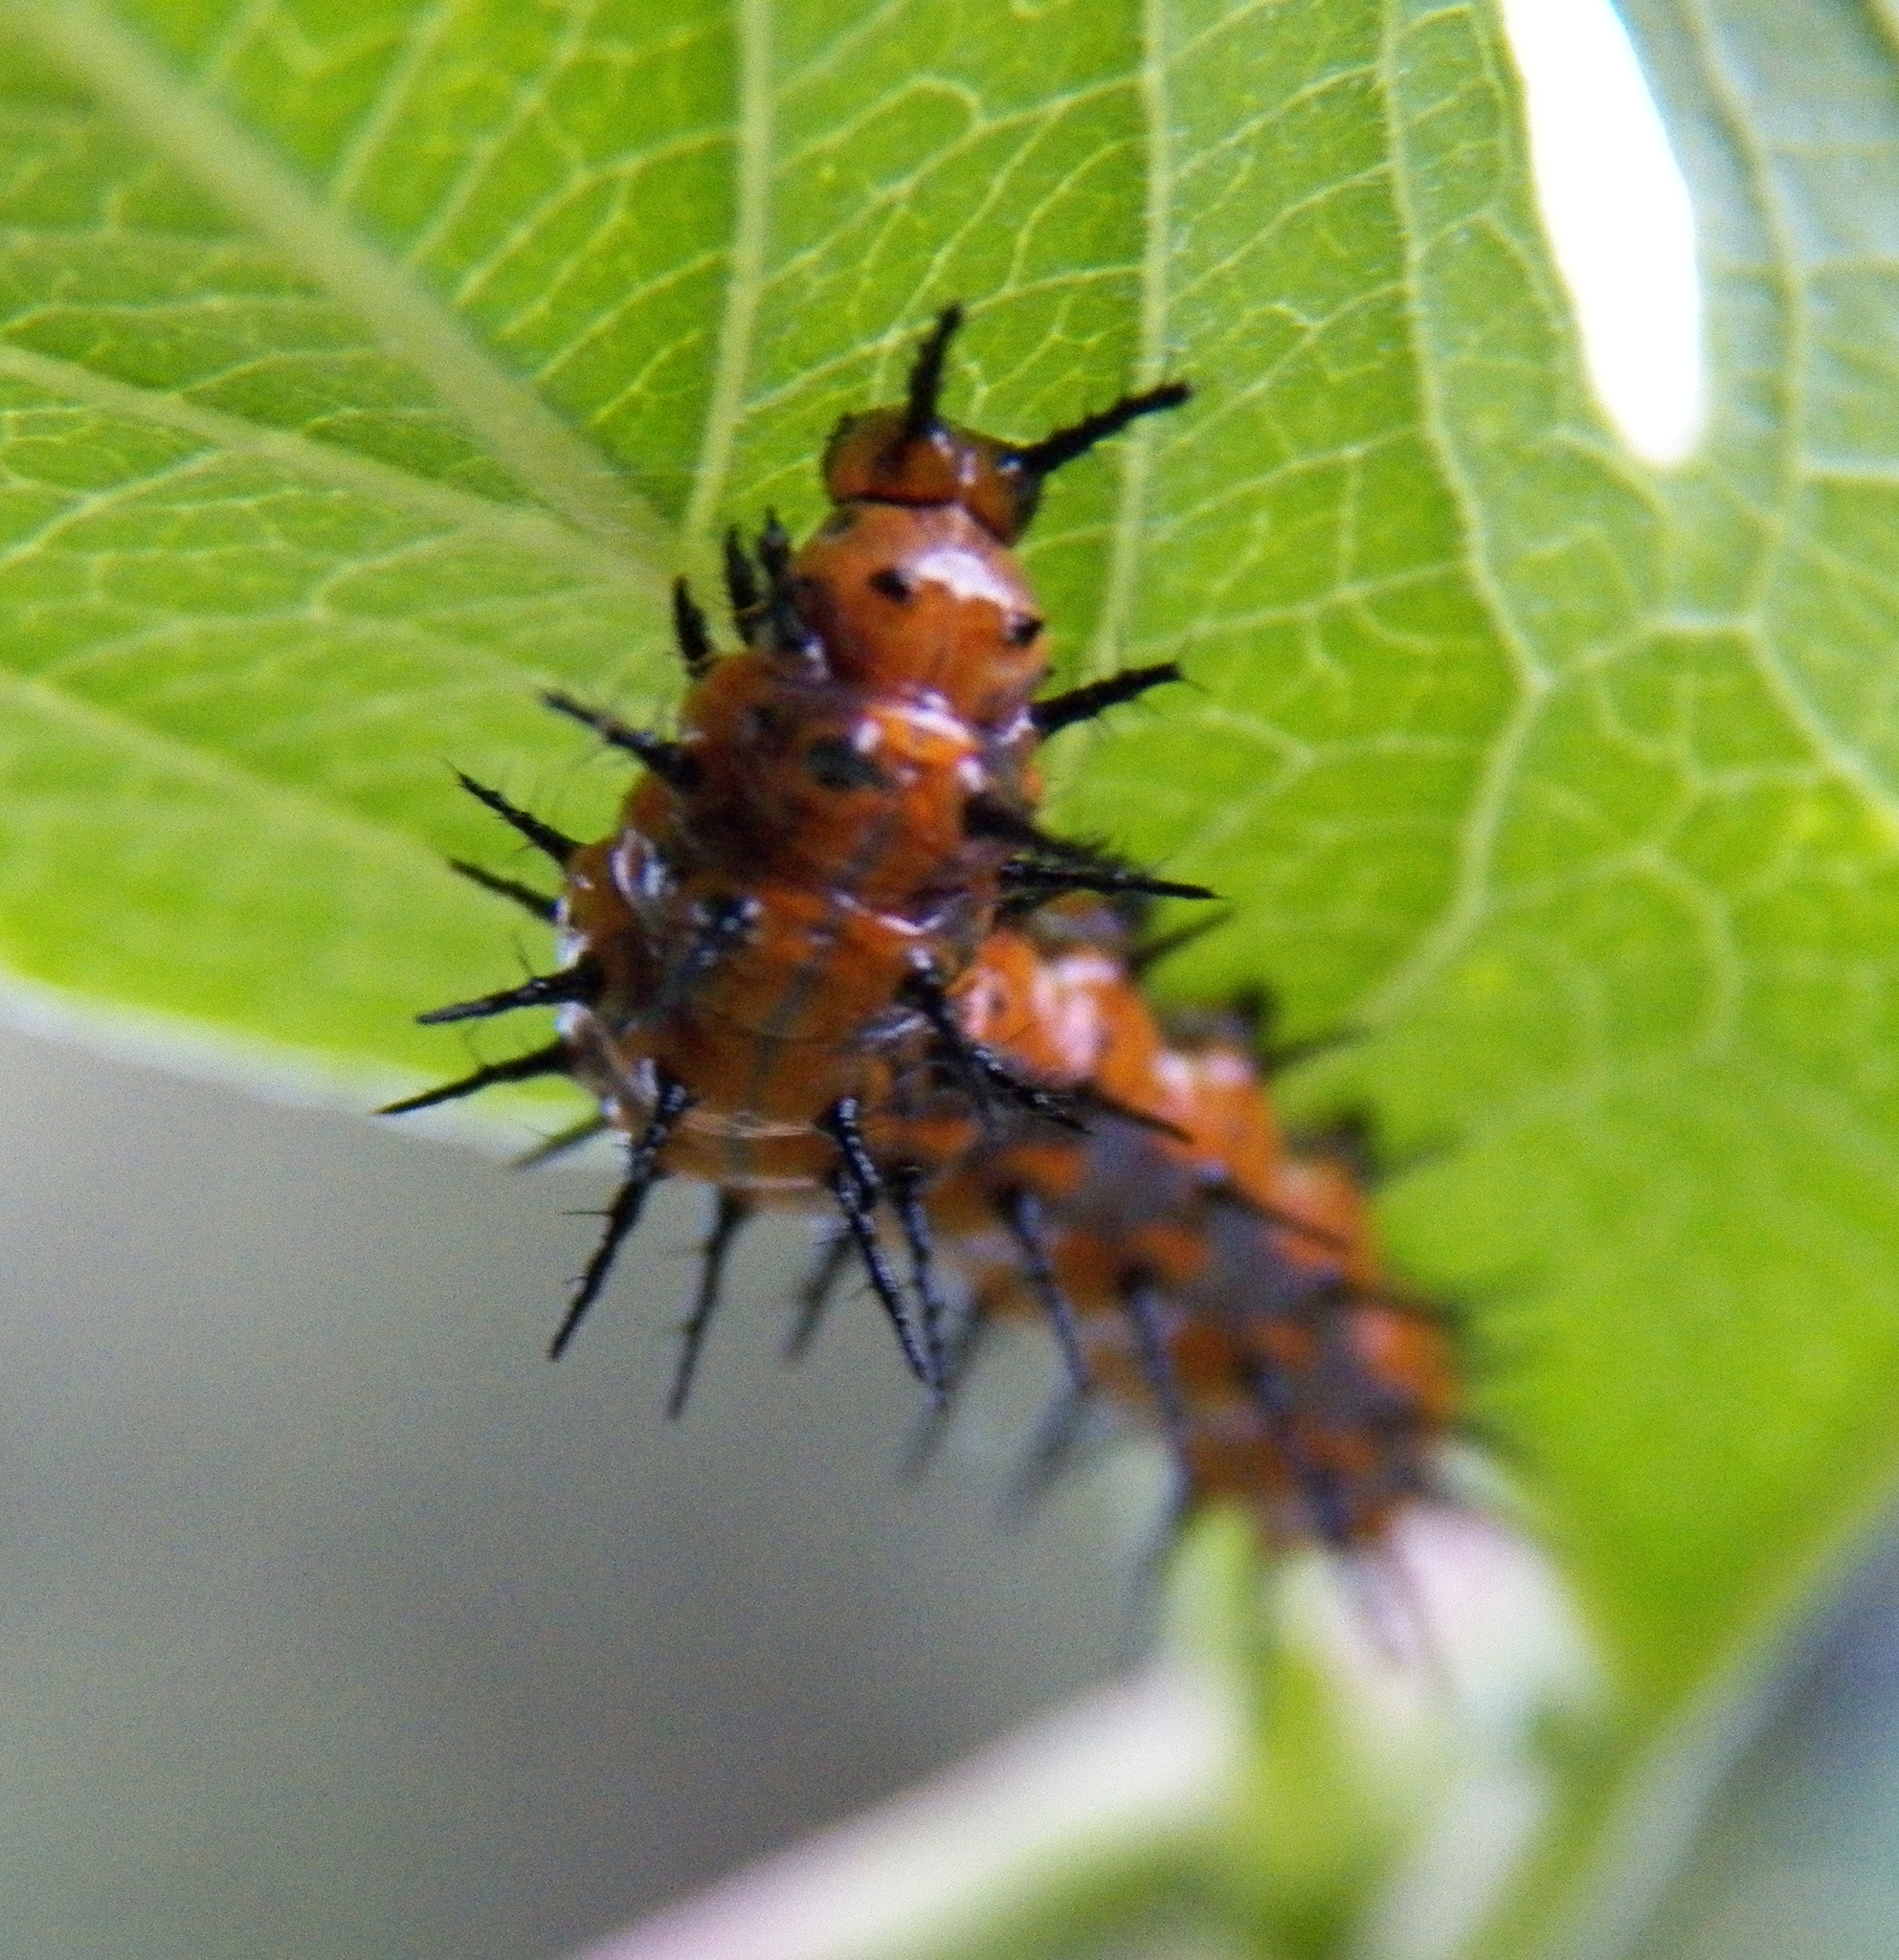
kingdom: Animalia
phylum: Arthropoda
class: Insecta
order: Lepidoptera
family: Nymphalidae
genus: Dione
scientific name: Dione vanillae
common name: Gulf fritillary
